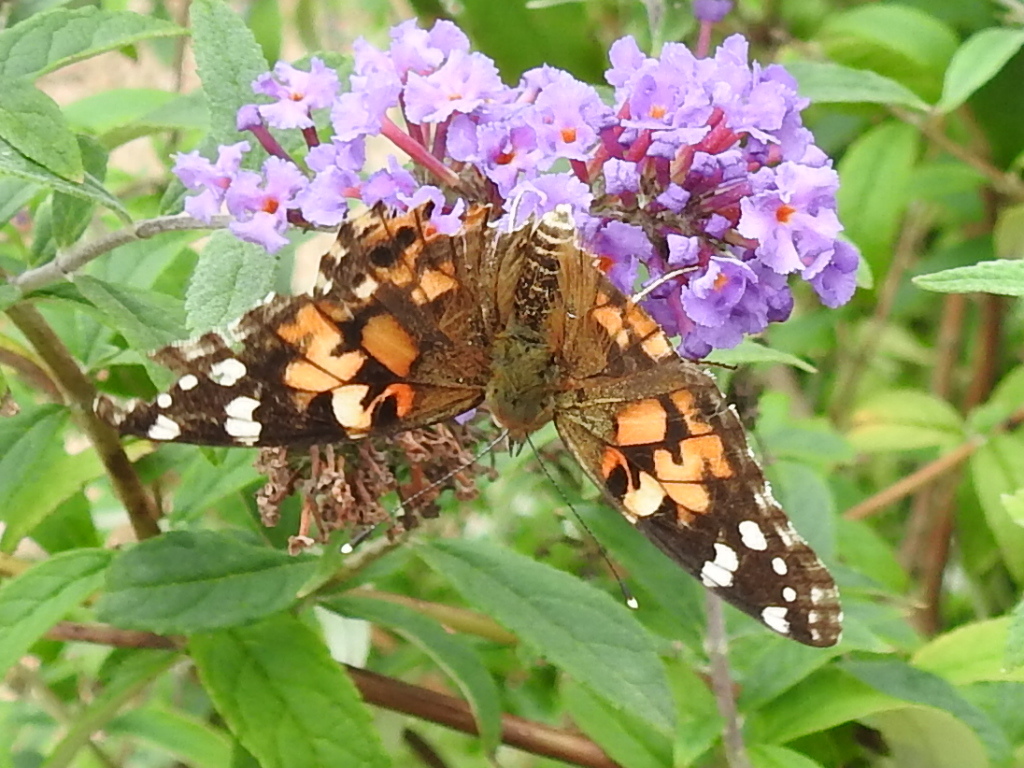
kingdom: Animalia
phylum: Arthropoda
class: Insecta
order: Lepidoptera
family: Nymphalidae
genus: Vanessa
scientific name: Vanessa cardui
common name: Painted lady
